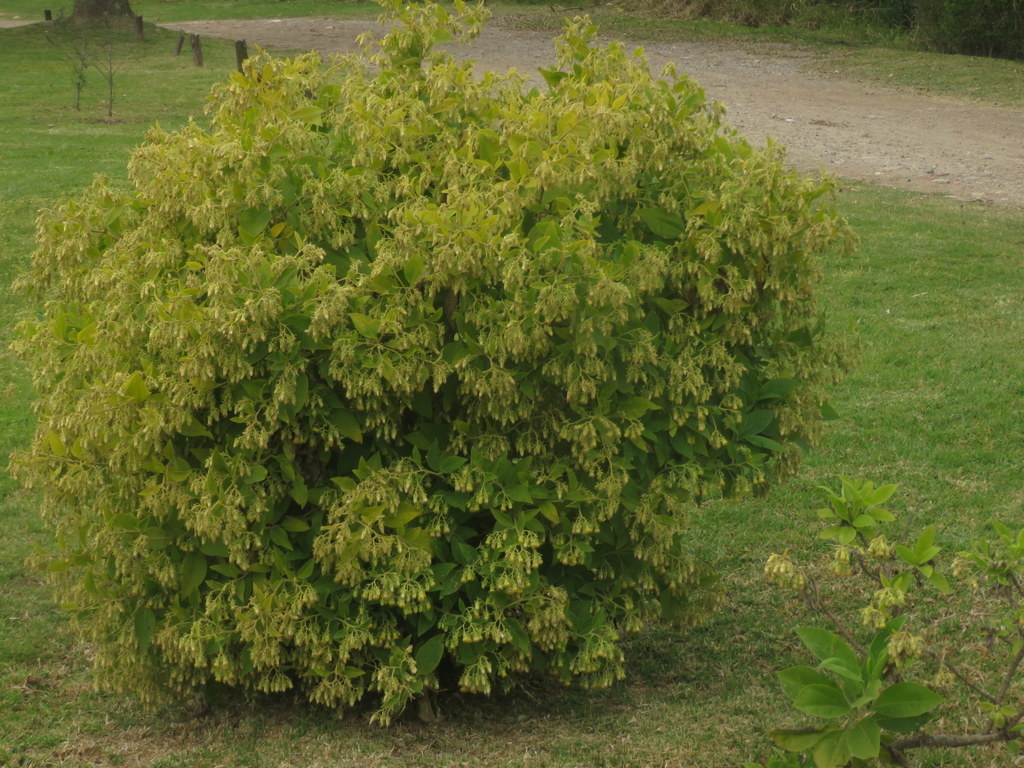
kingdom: Plantae
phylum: Tracheophyta
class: Magnoliopsida
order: Asterales
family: Asteraceae
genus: Trixis
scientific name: Trixis praestans
